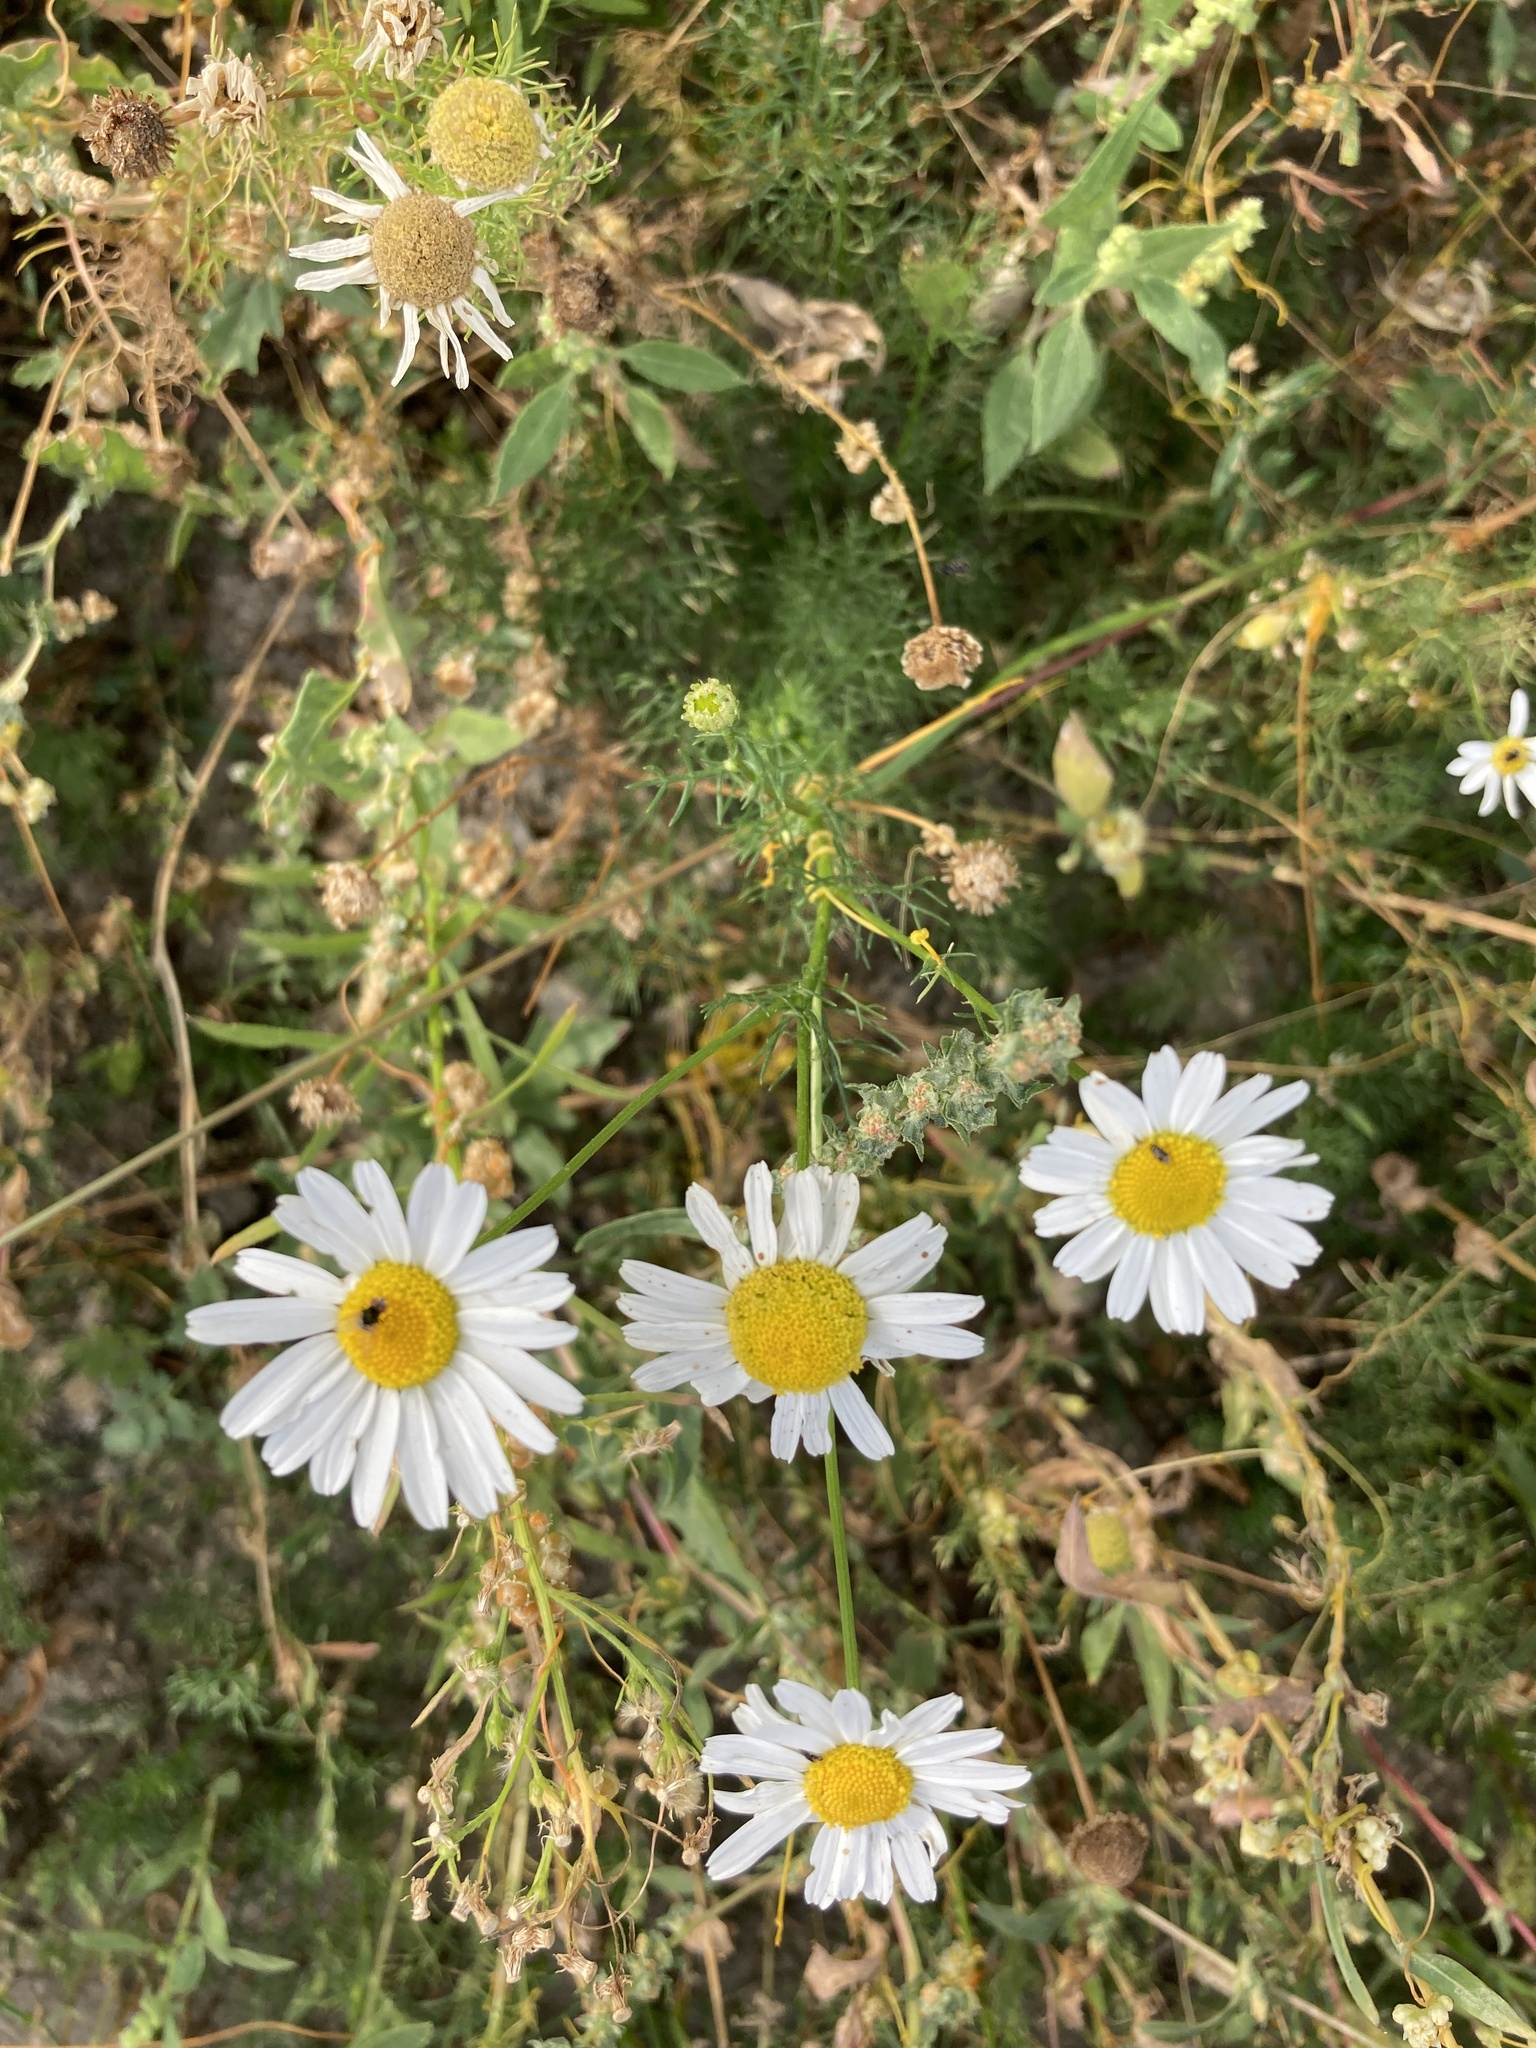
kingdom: Plantae
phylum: Tracheophyta
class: Magnoliopsida
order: Asterales
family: Asteraceae
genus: Tripleurospermum
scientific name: Tripleurospermum inodorum
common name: Scentless mayweed
